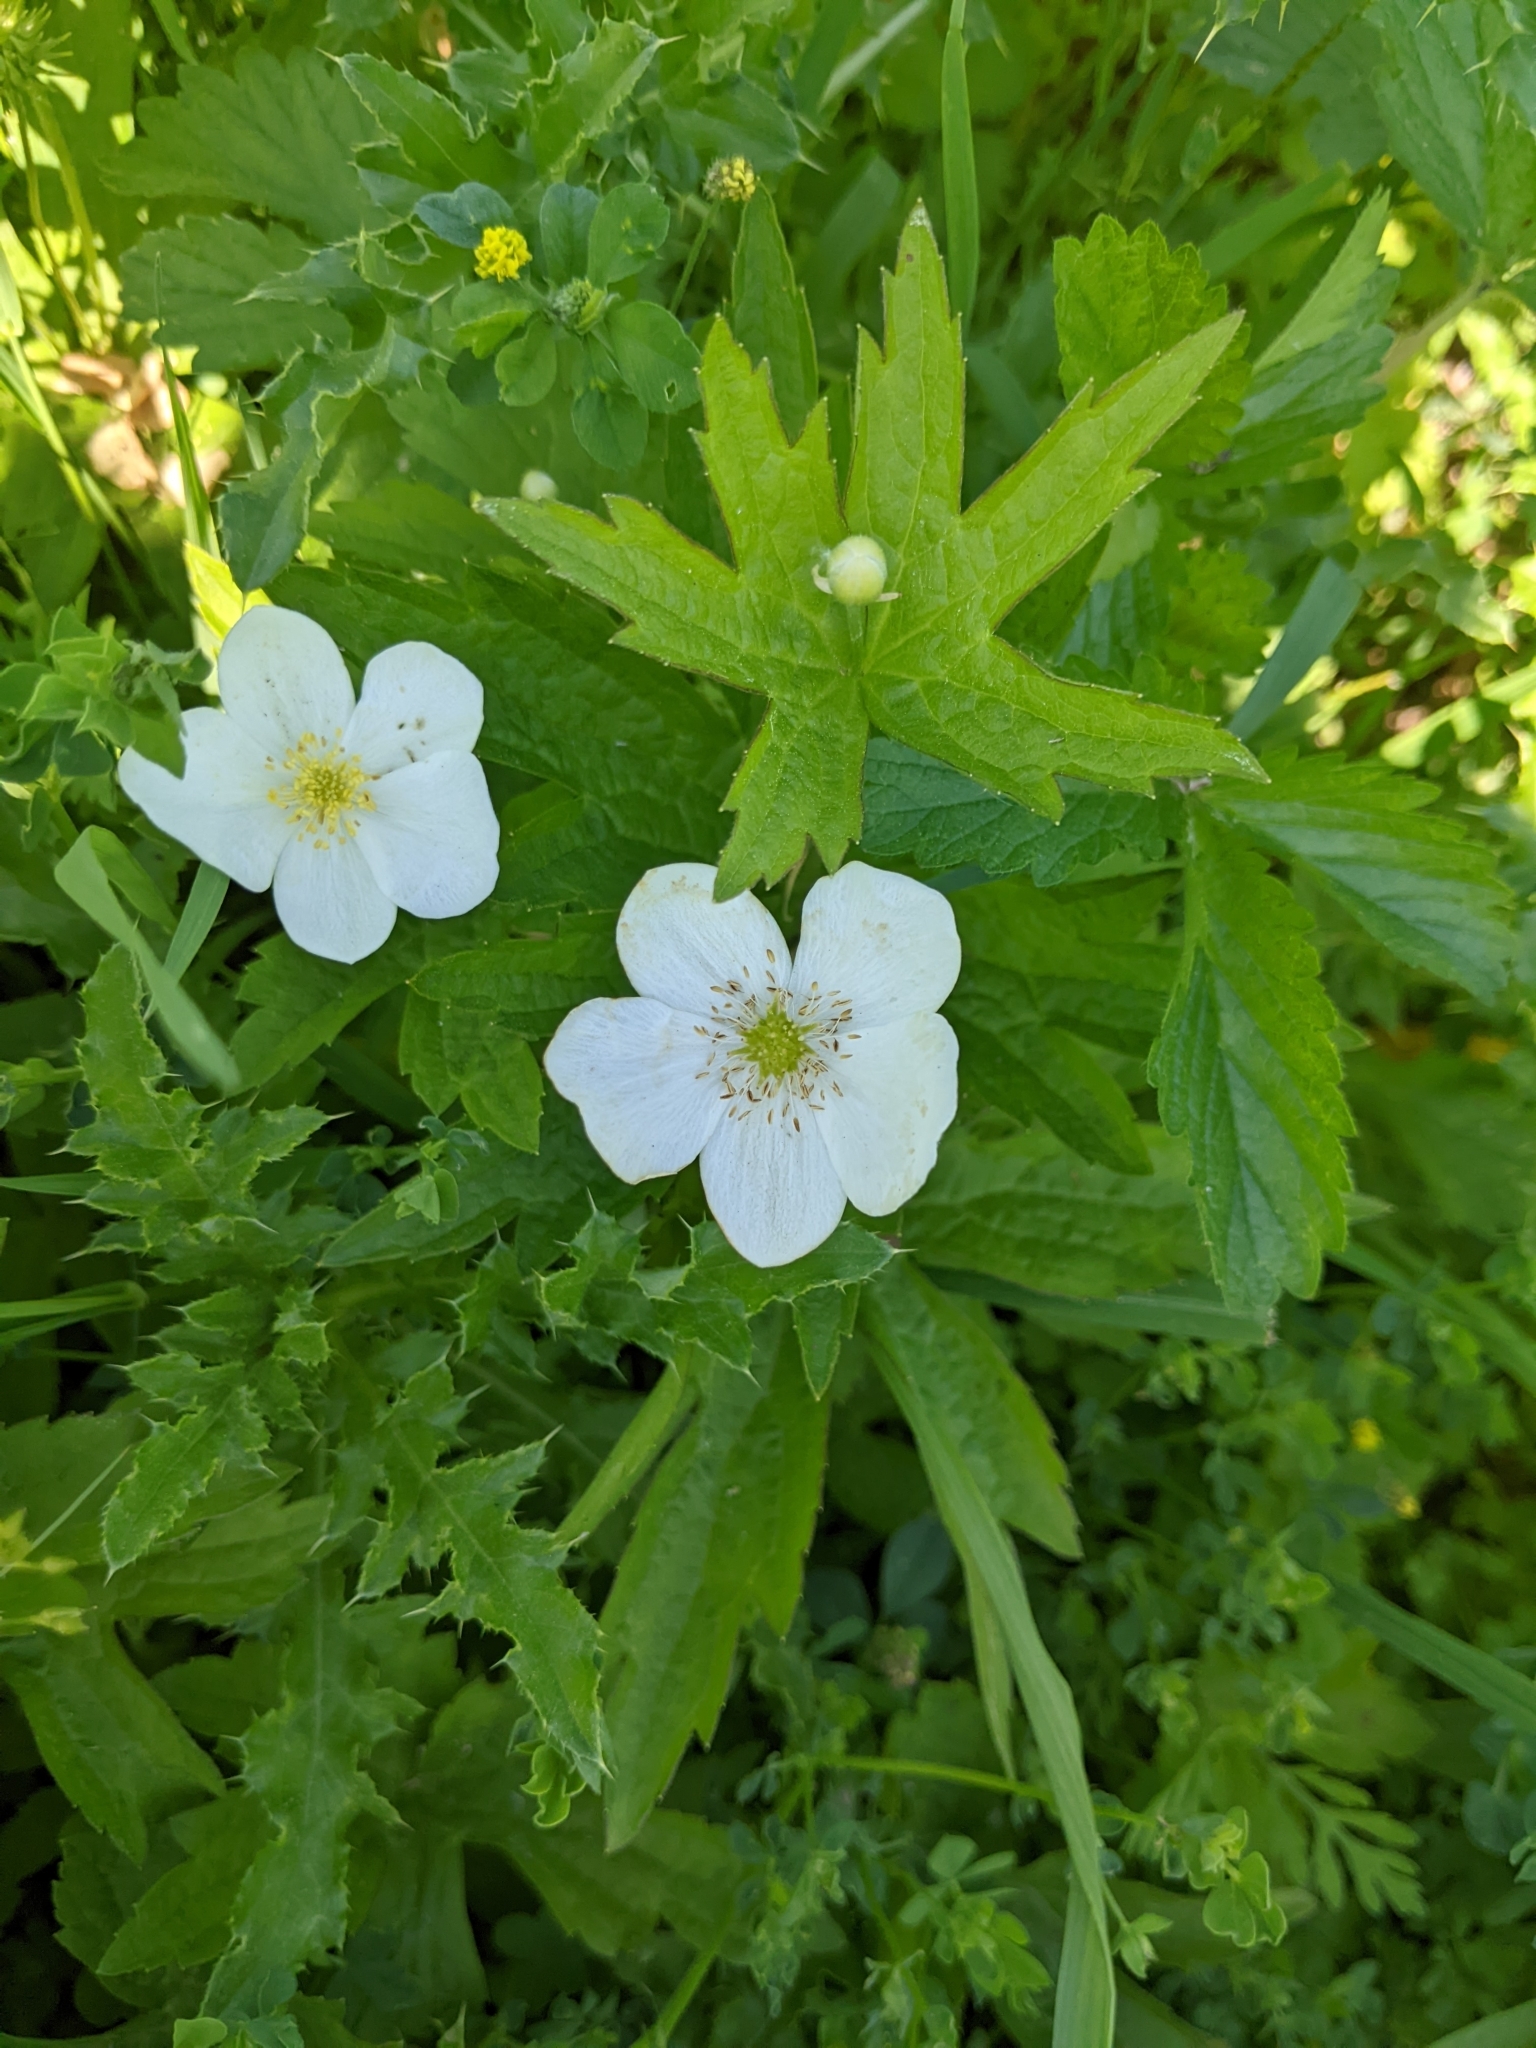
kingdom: Plantae
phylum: Tracheophyta
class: Magnoliopsida
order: Ranunculales
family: Ranunculaceae
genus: Anemonastrum
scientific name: Anemonastrum canadense
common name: Canada anemone
